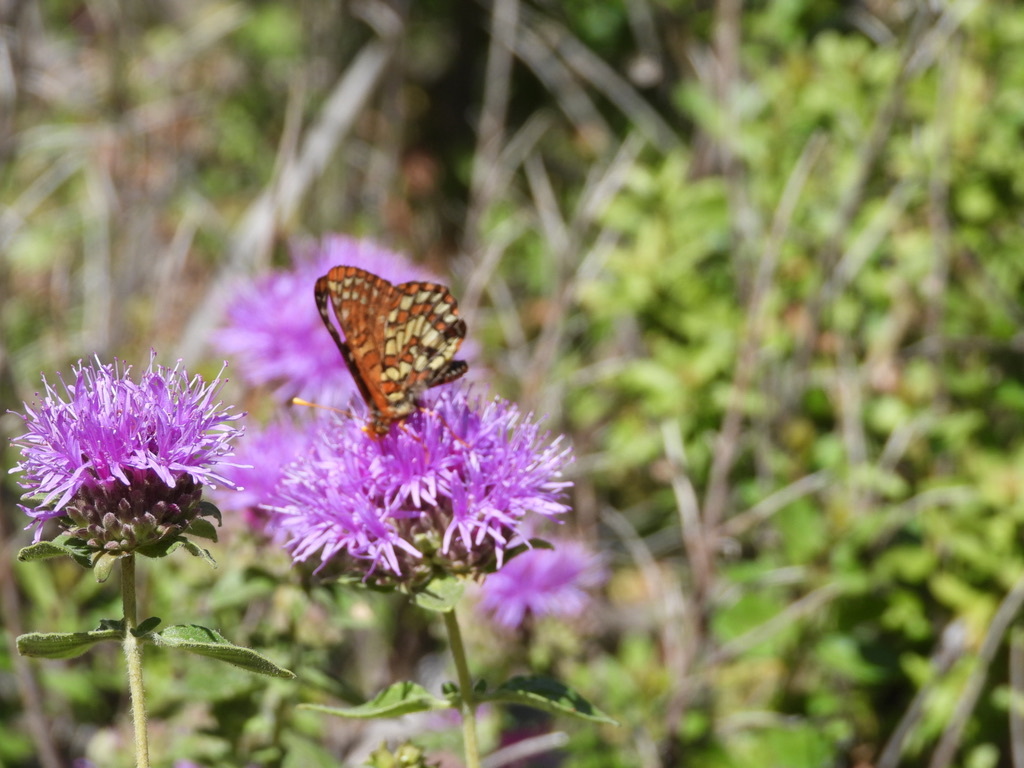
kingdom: Animalia
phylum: Arthropoda
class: Insecta
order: Lepidoptera
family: Nymphalidae
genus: Occidryas
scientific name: Occidryas chalcedona
